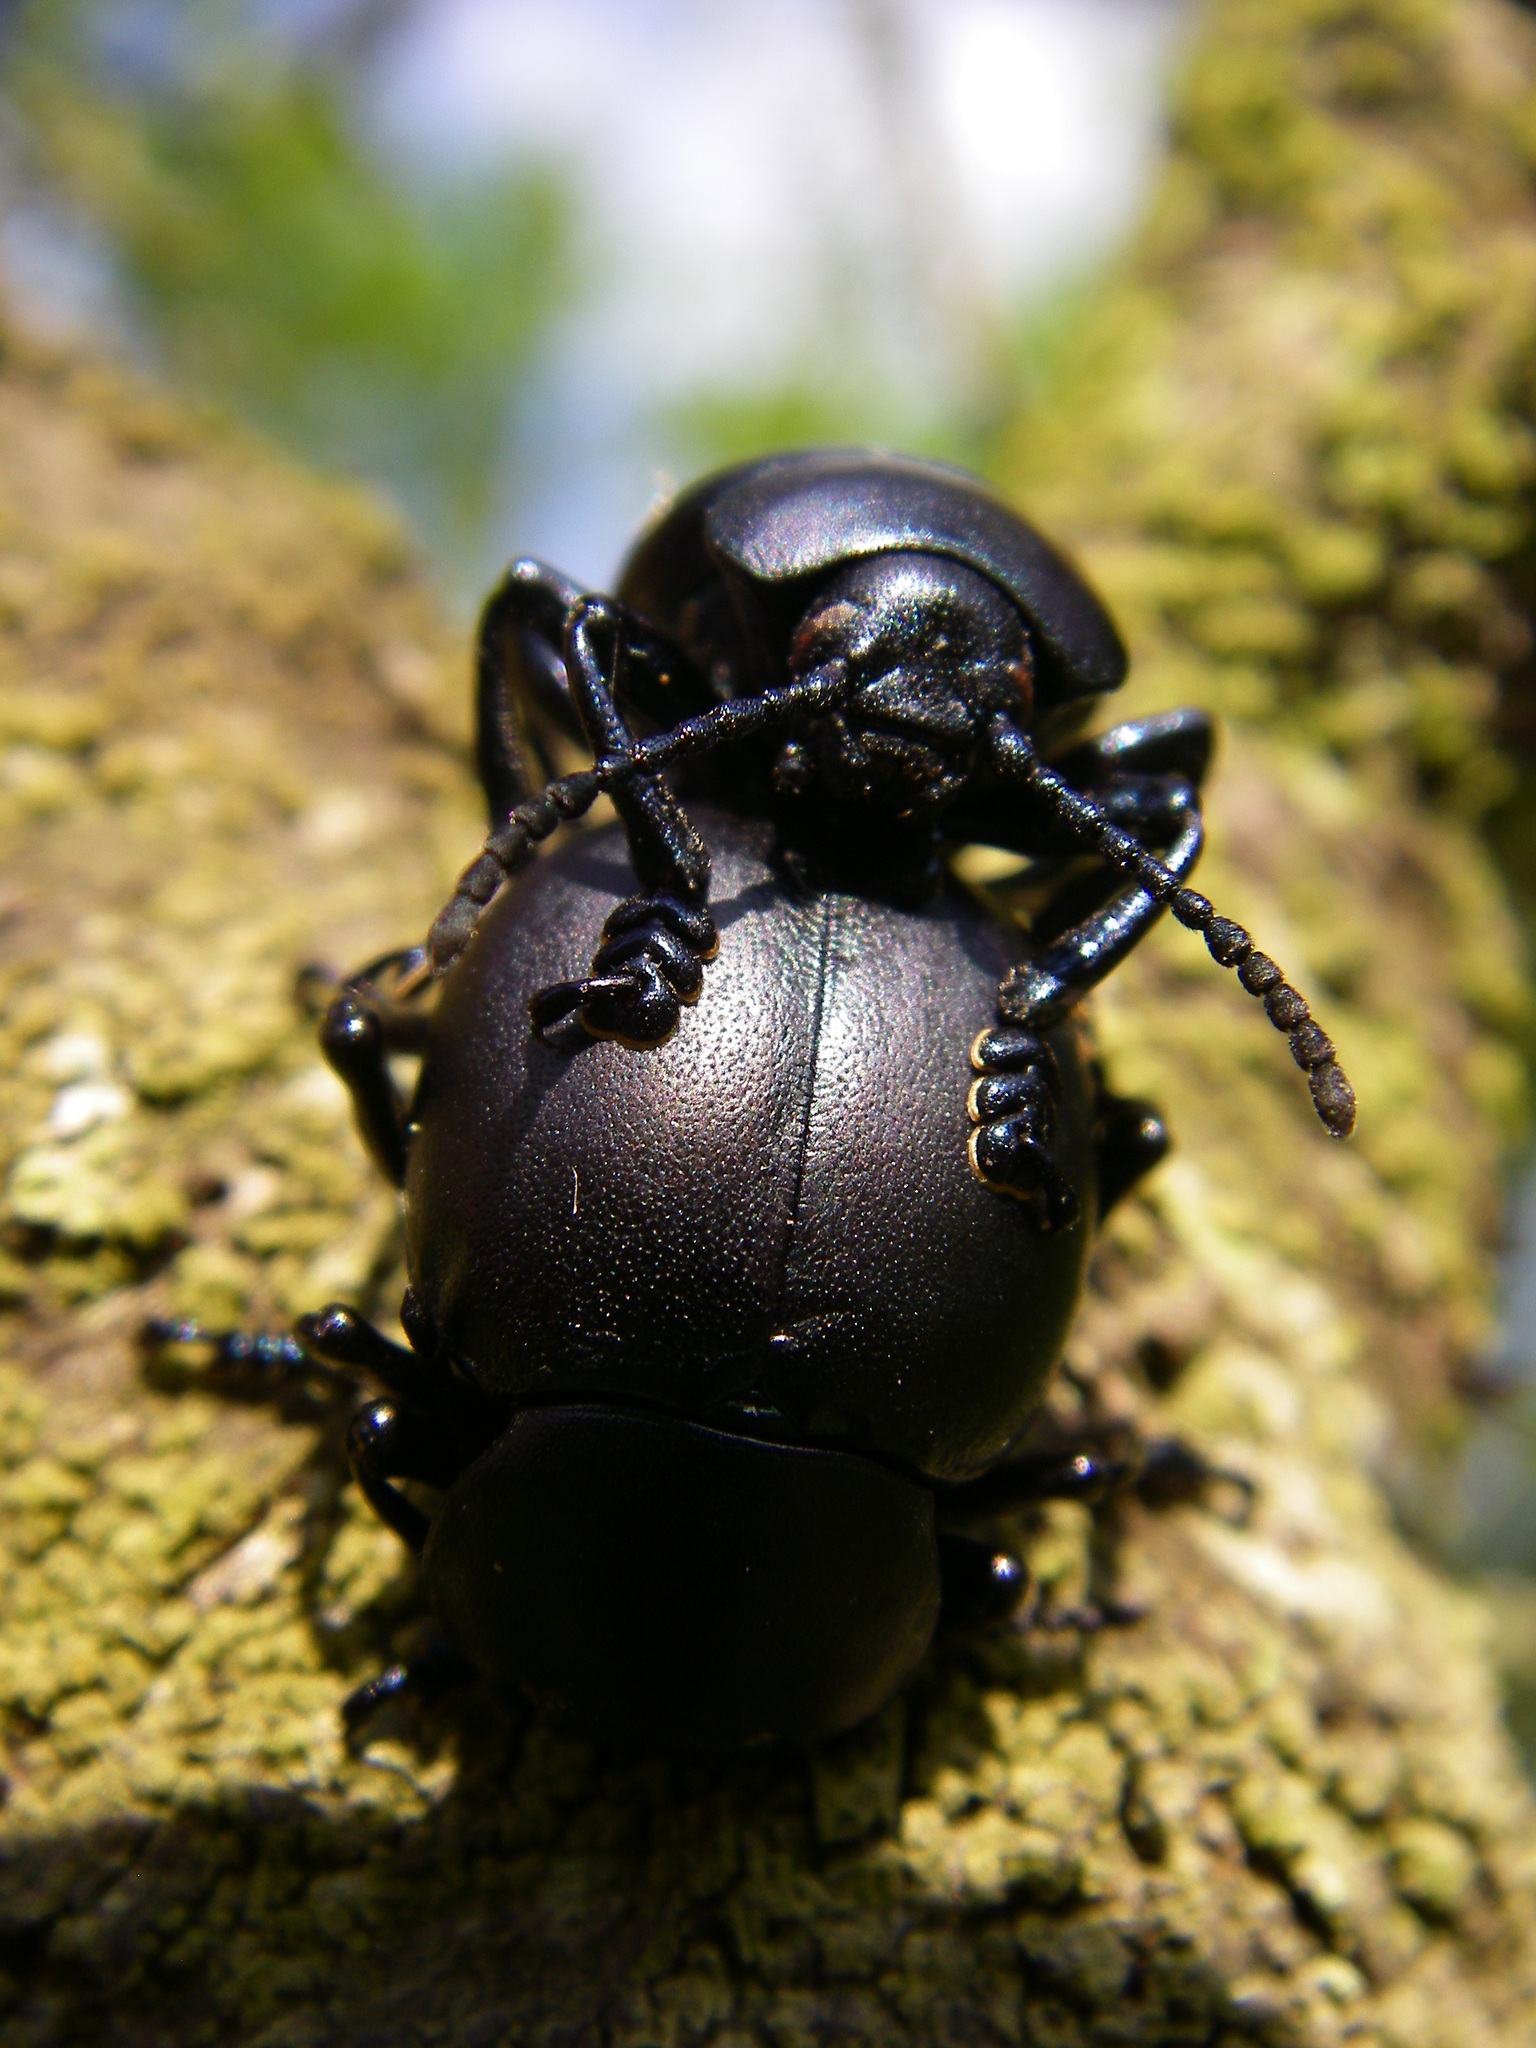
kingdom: Animalia
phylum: Arthropoda
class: Insecta
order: Coleoptera
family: Chrysomelidae
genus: Timarcha
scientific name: Timarcha tenebricosa
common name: Bloody-nosed beetle
